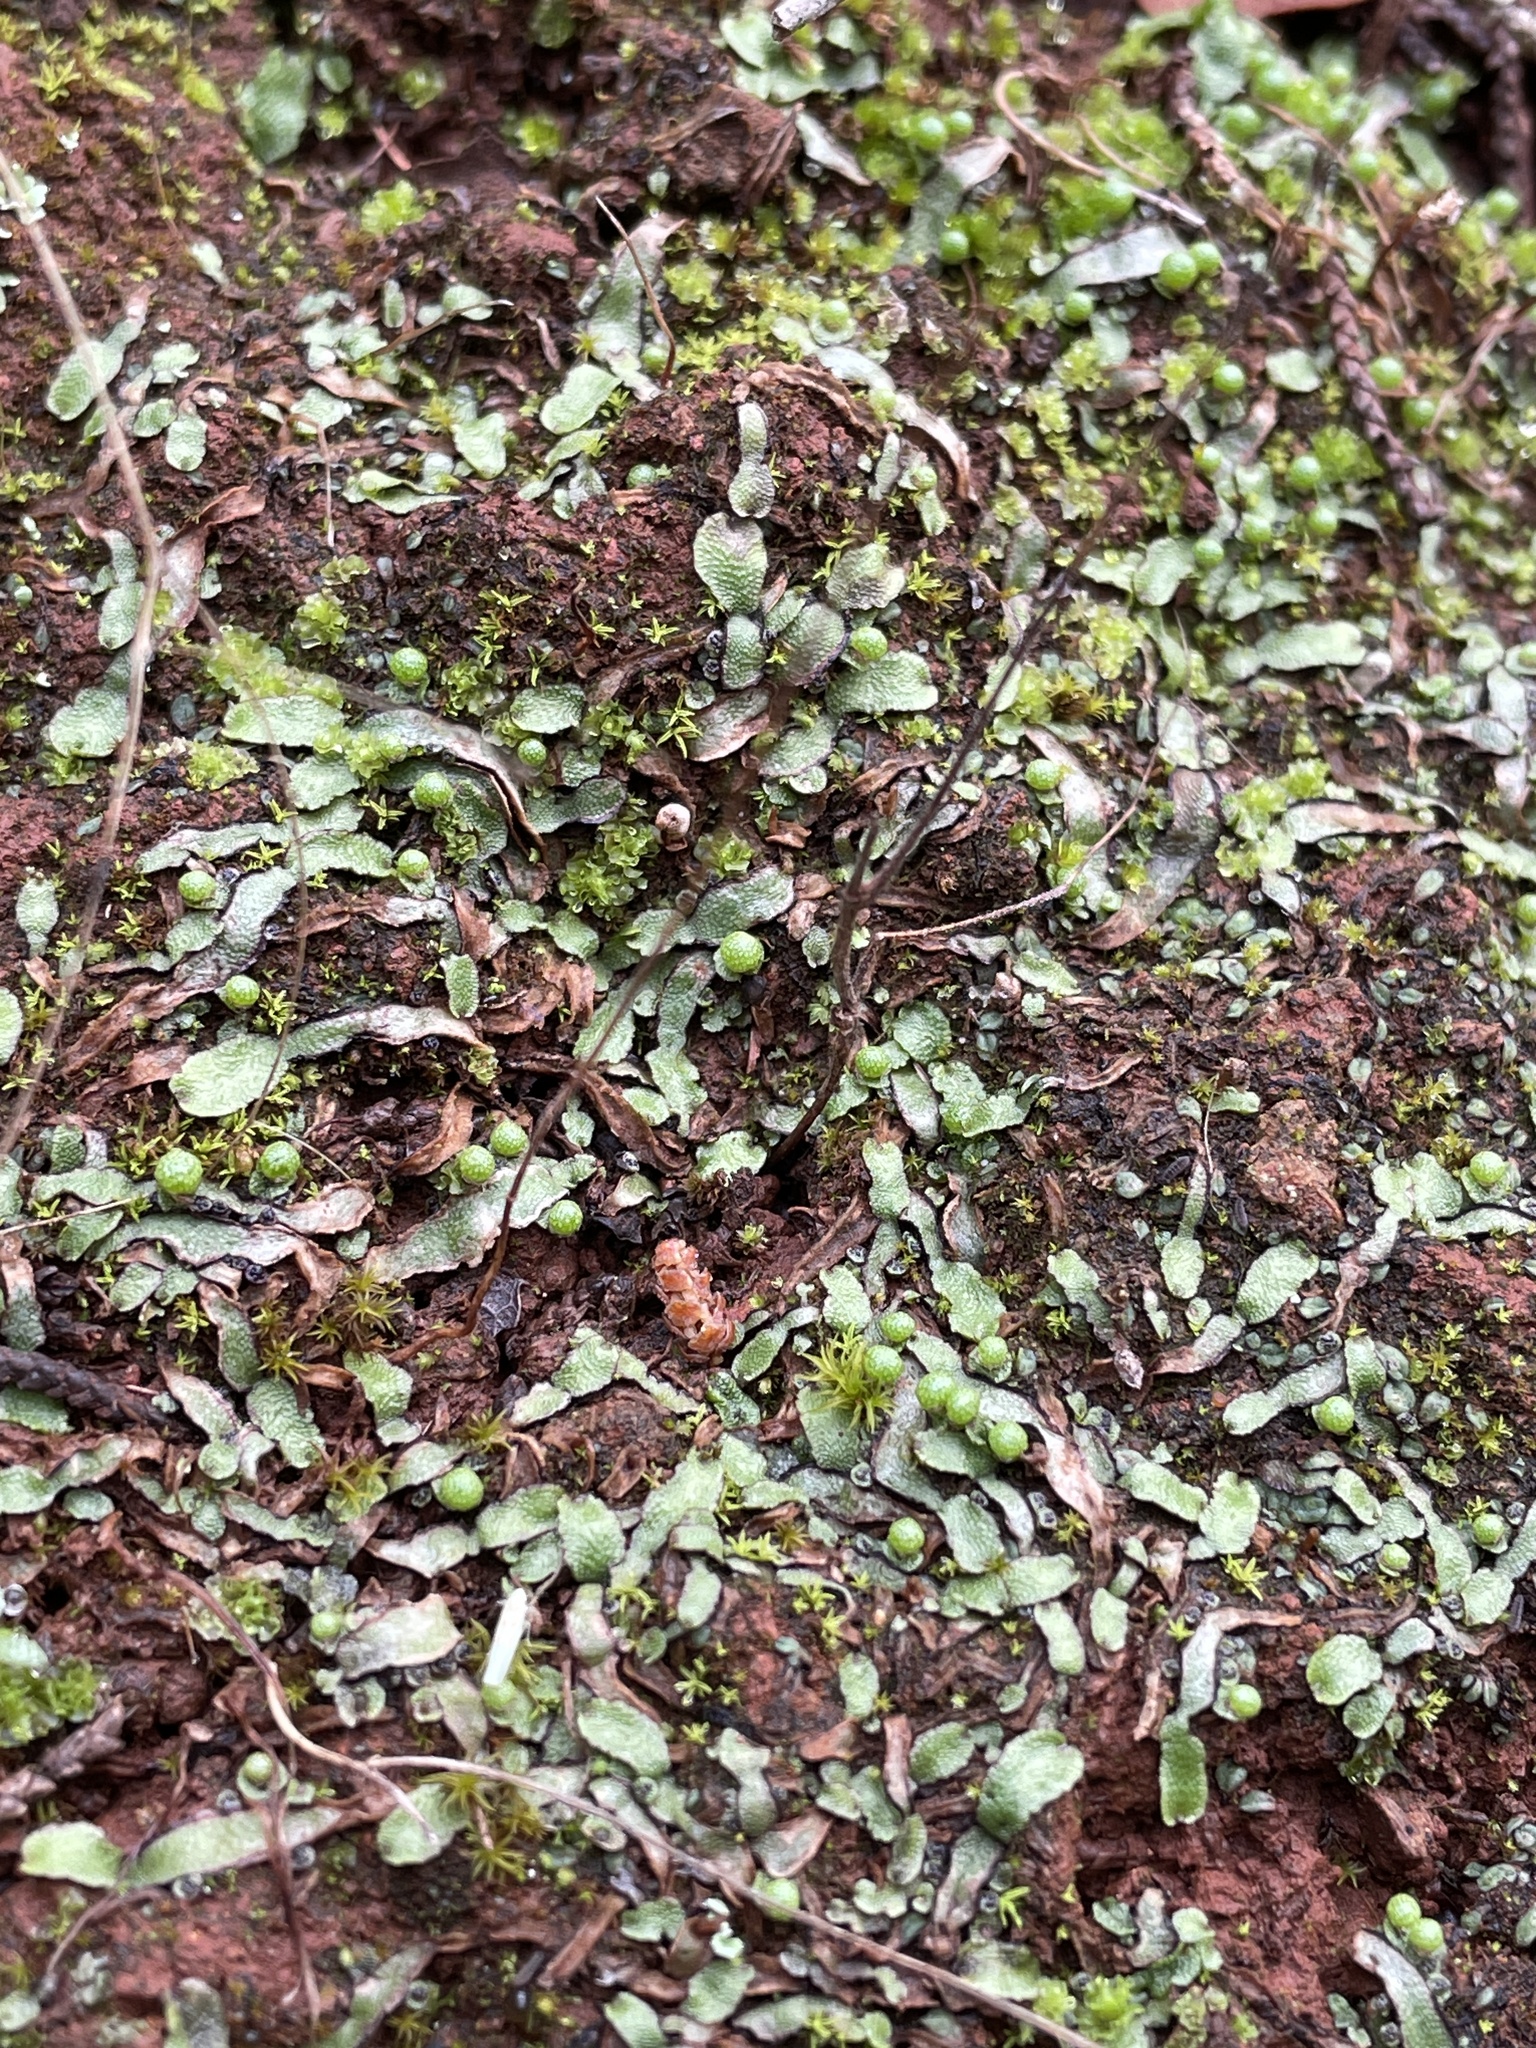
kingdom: Plantae
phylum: Marchantiophyta
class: Marchantiopsida
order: Marchantiales
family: Aytoniaceae
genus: Asterella
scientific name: Asterella bolanderi
